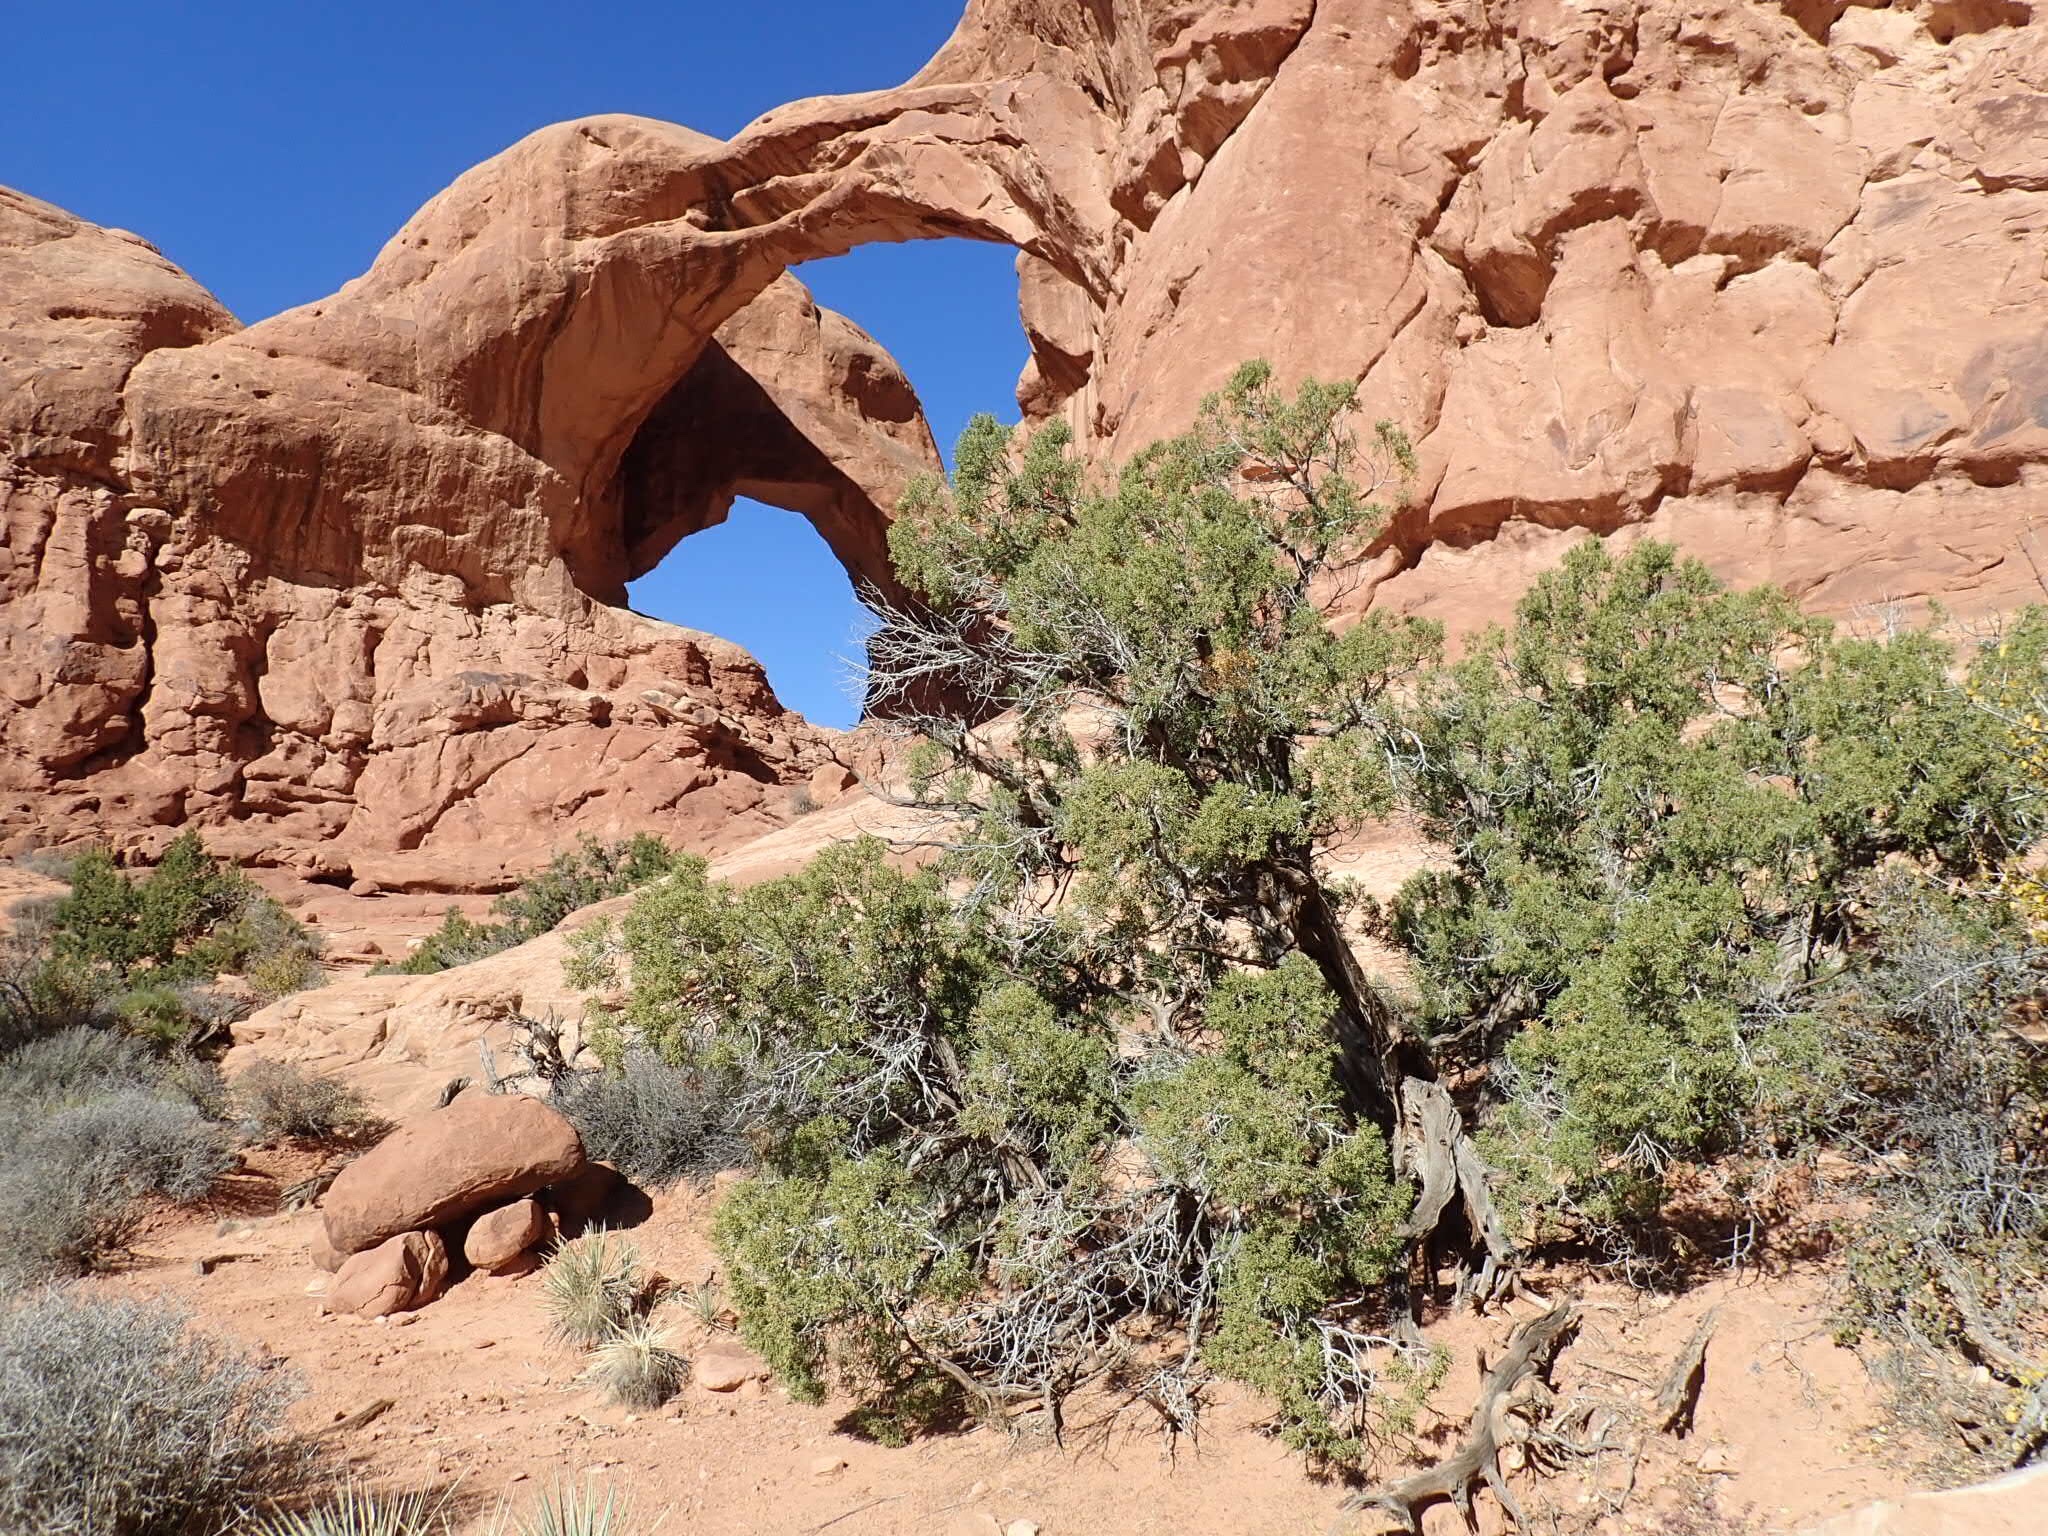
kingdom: Plantae
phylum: Tracheophyta
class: Pinopsida
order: Pinales
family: Cupressaceae
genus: Juniperus
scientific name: Juniperus osteosperma
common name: Utah juniper
